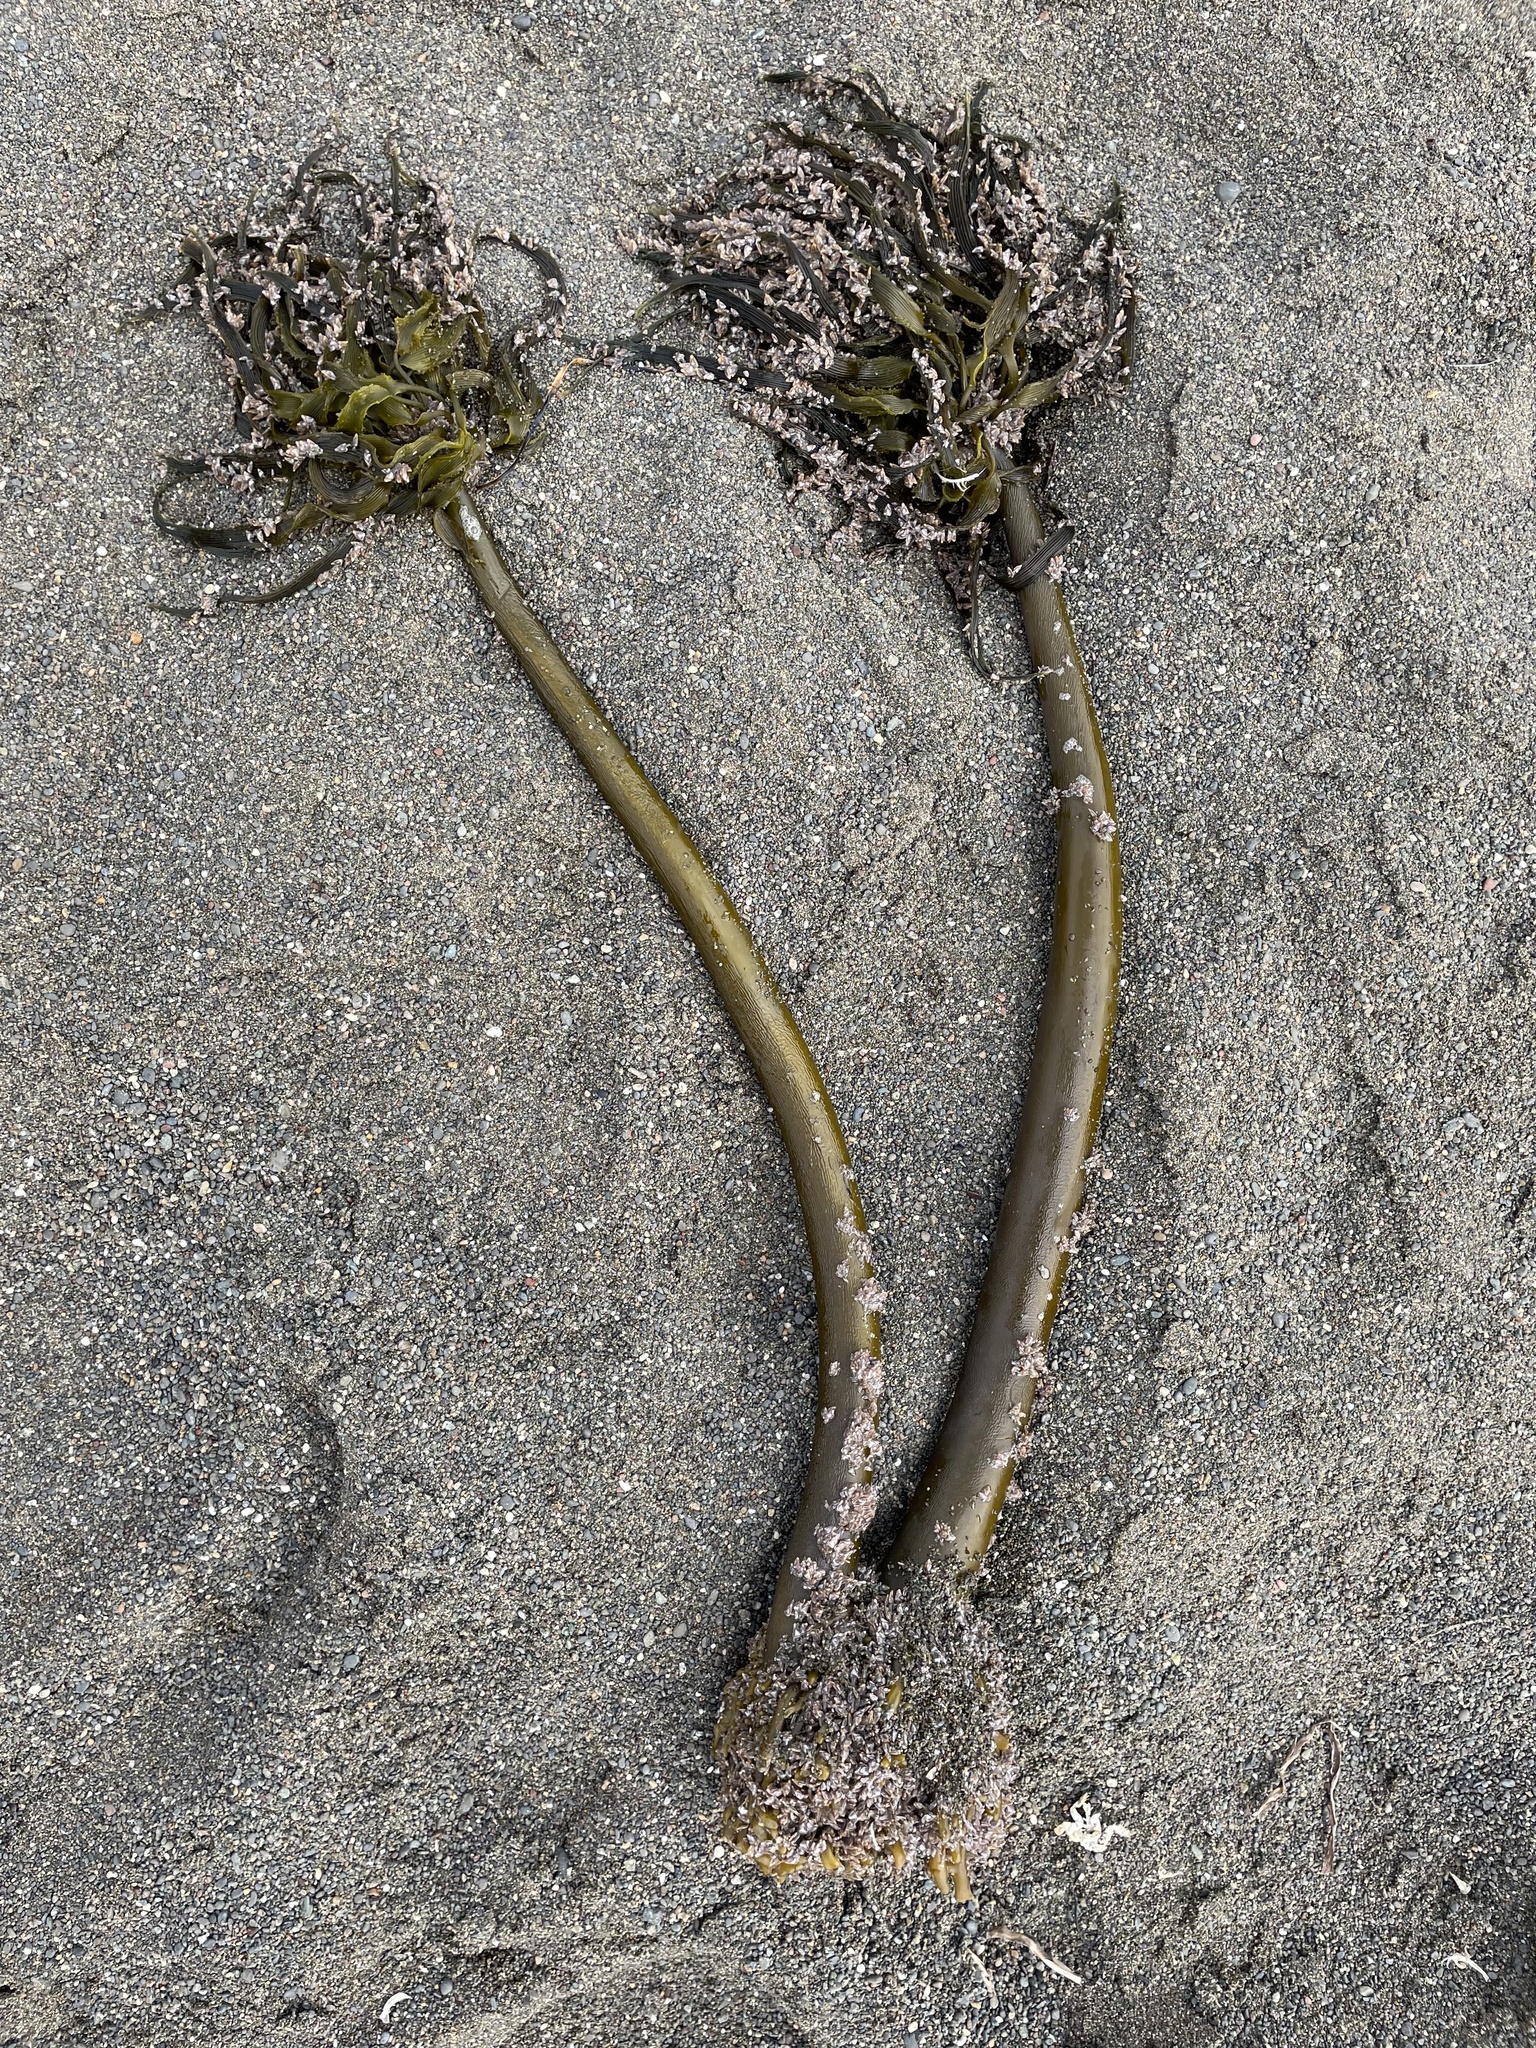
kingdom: Chromista
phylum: Ochrophyta
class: Phaeophyceae
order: Laminariales
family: Laminariaceae
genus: Postelsia
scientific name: Postelsia palmiformis
